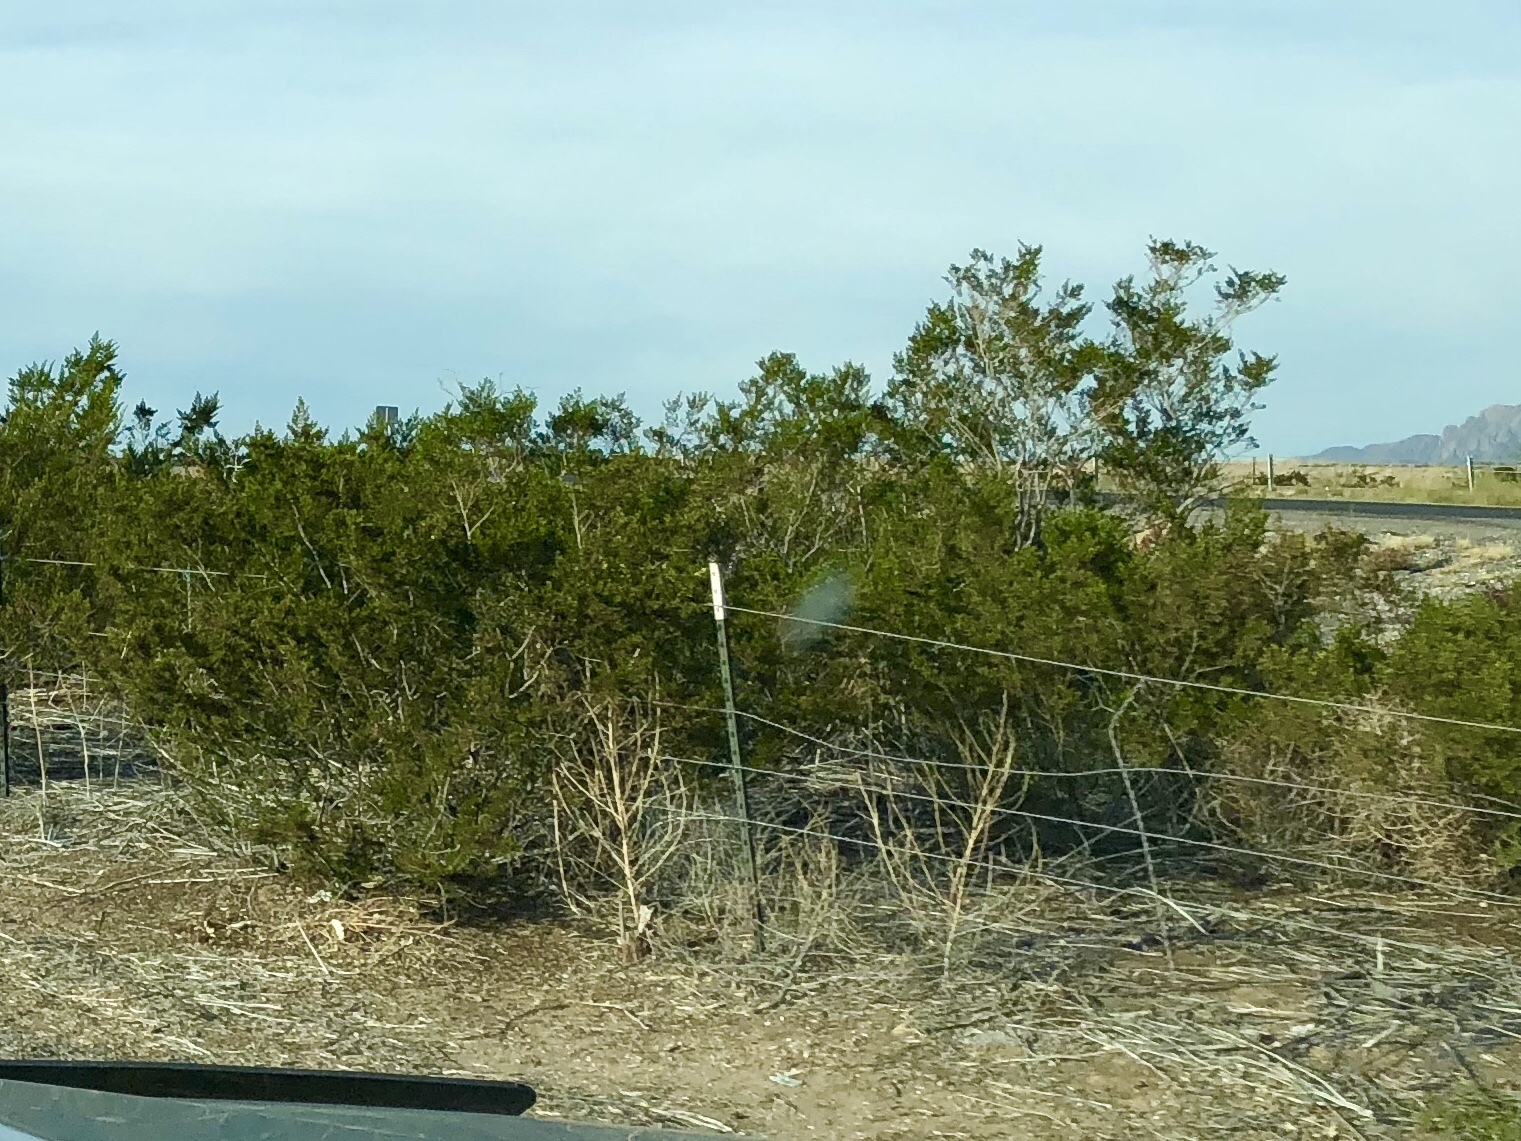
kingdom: Plantae
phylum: Tracheophyta
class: Magnoliopsida
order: Zygophyllales
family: Zygophyllaceae
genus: Larrea
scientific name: Larrea tridentata
